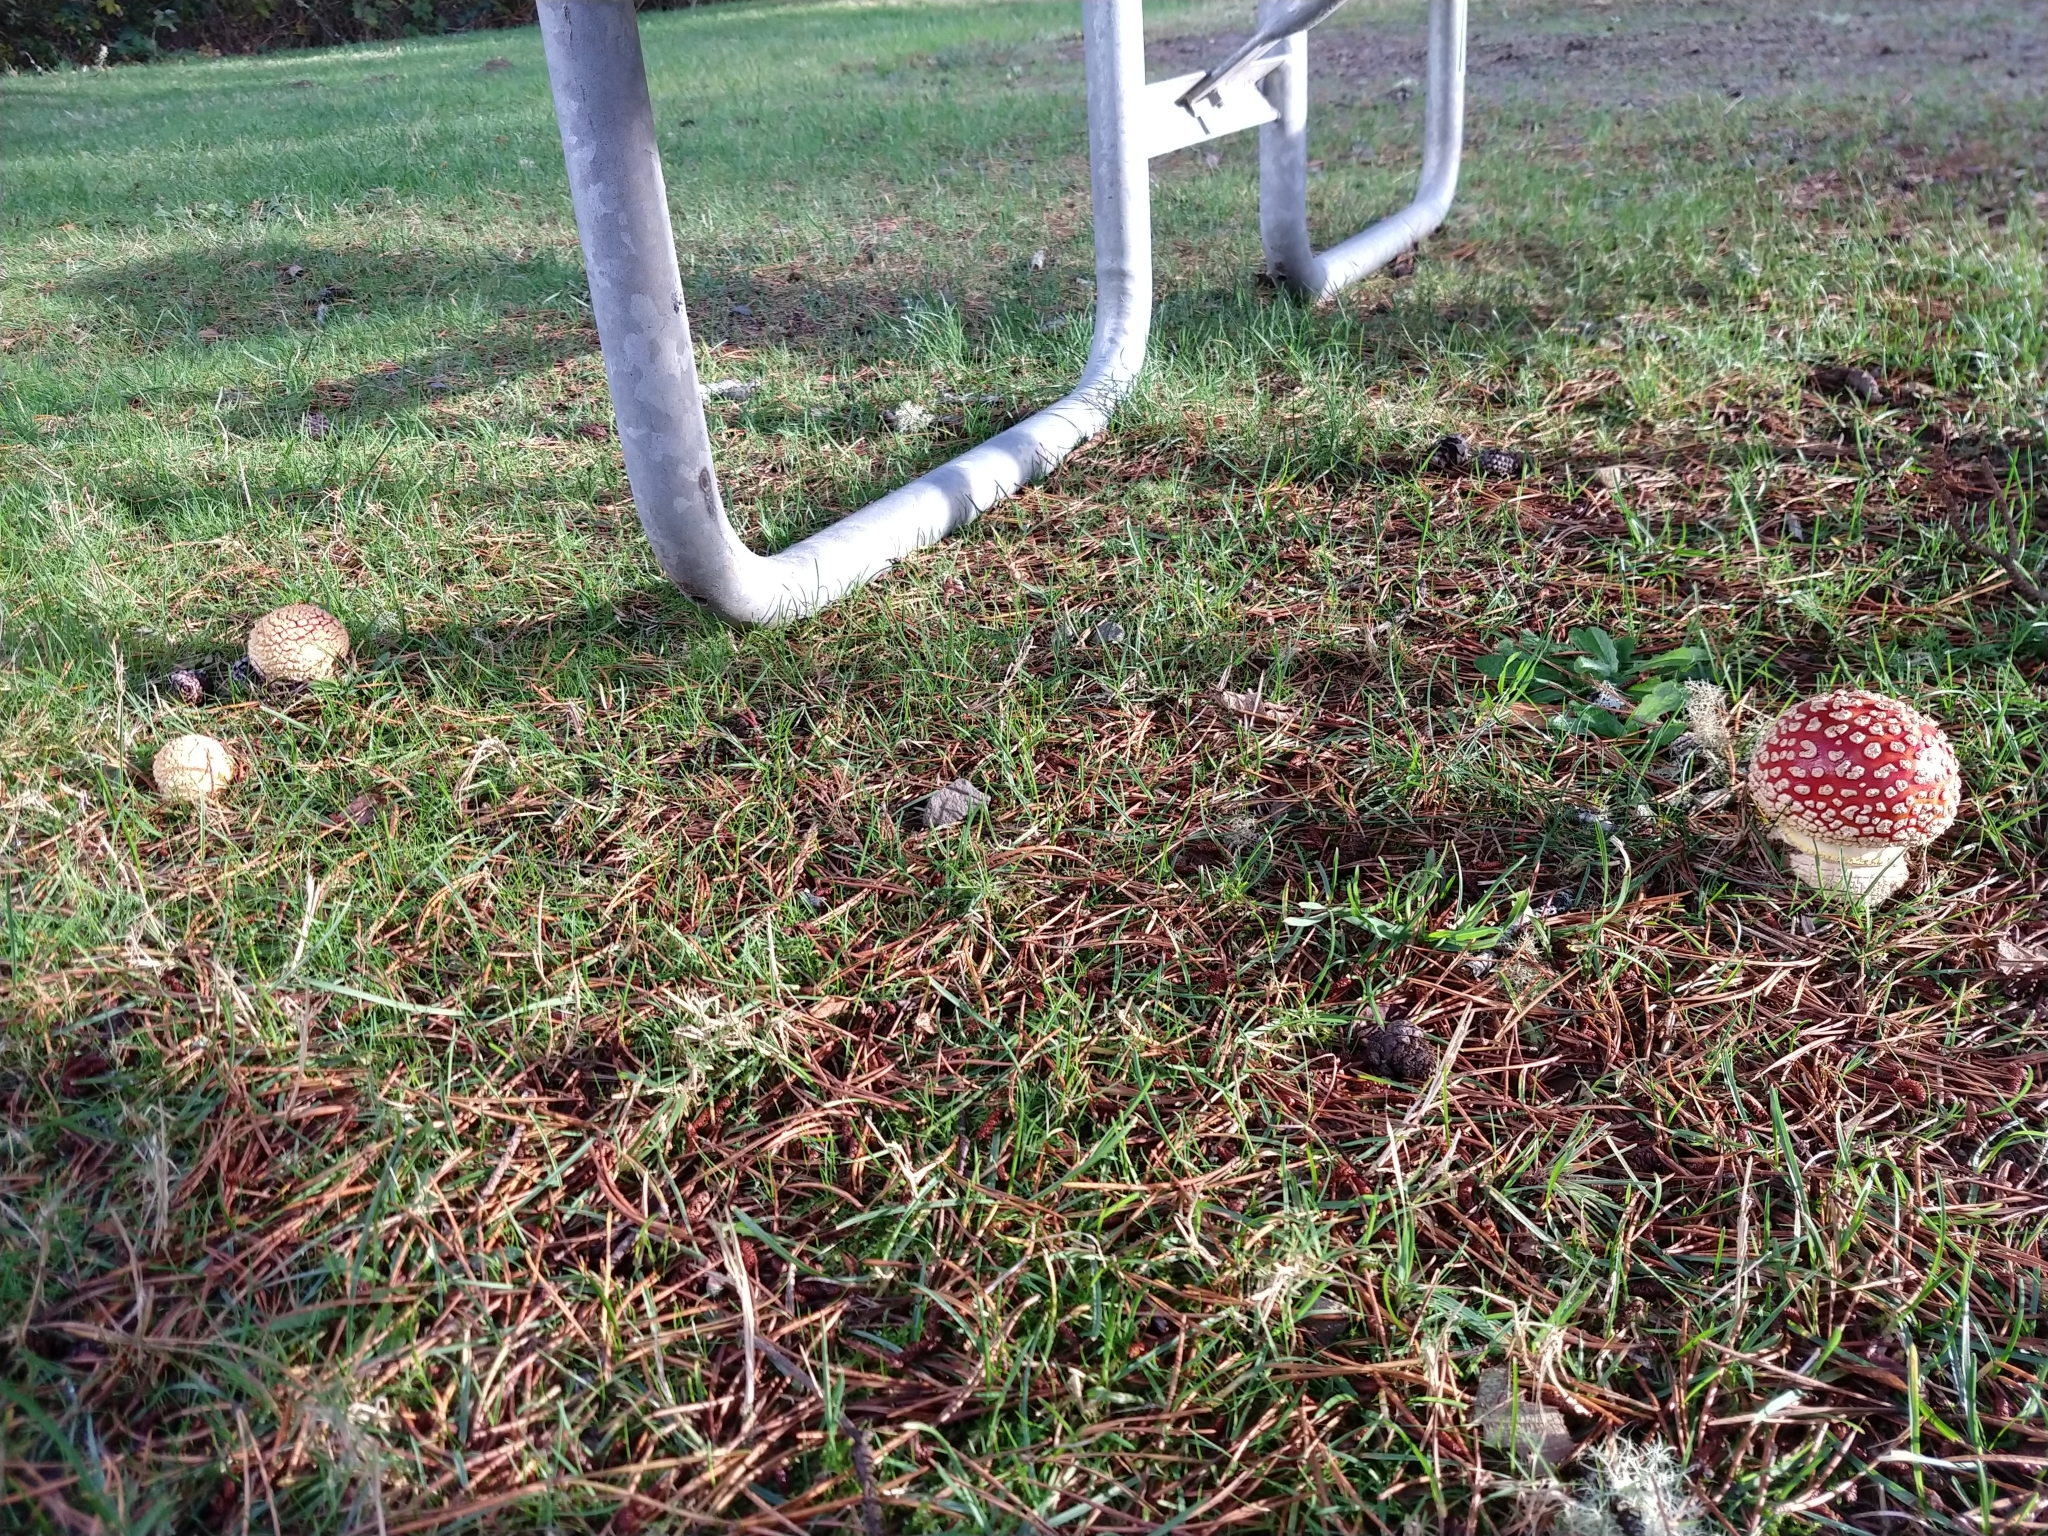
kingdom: Fungi
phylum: Basidiomycota
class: Agaricomycetes
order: Agaricales
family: Amanitaceae
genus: Amanita
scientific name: Amanita muscaria
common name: Fly agaric
